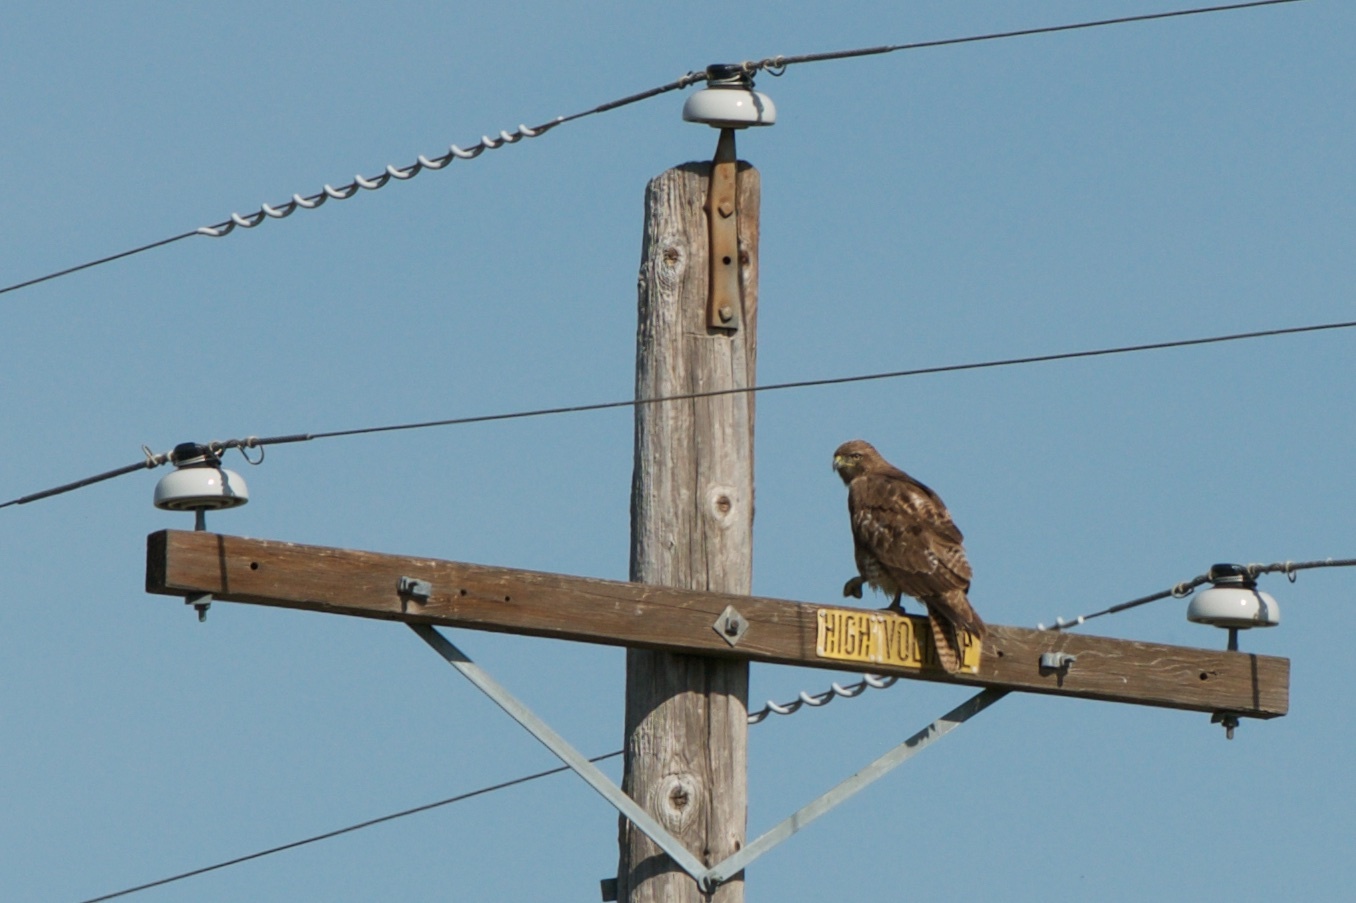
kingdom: Animalia
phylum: Chordata
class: Aves
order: Accipitriformes
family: Accipitridae
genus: Buteo
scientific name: Buteo jamaicensis
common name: Red-tailed hawk
